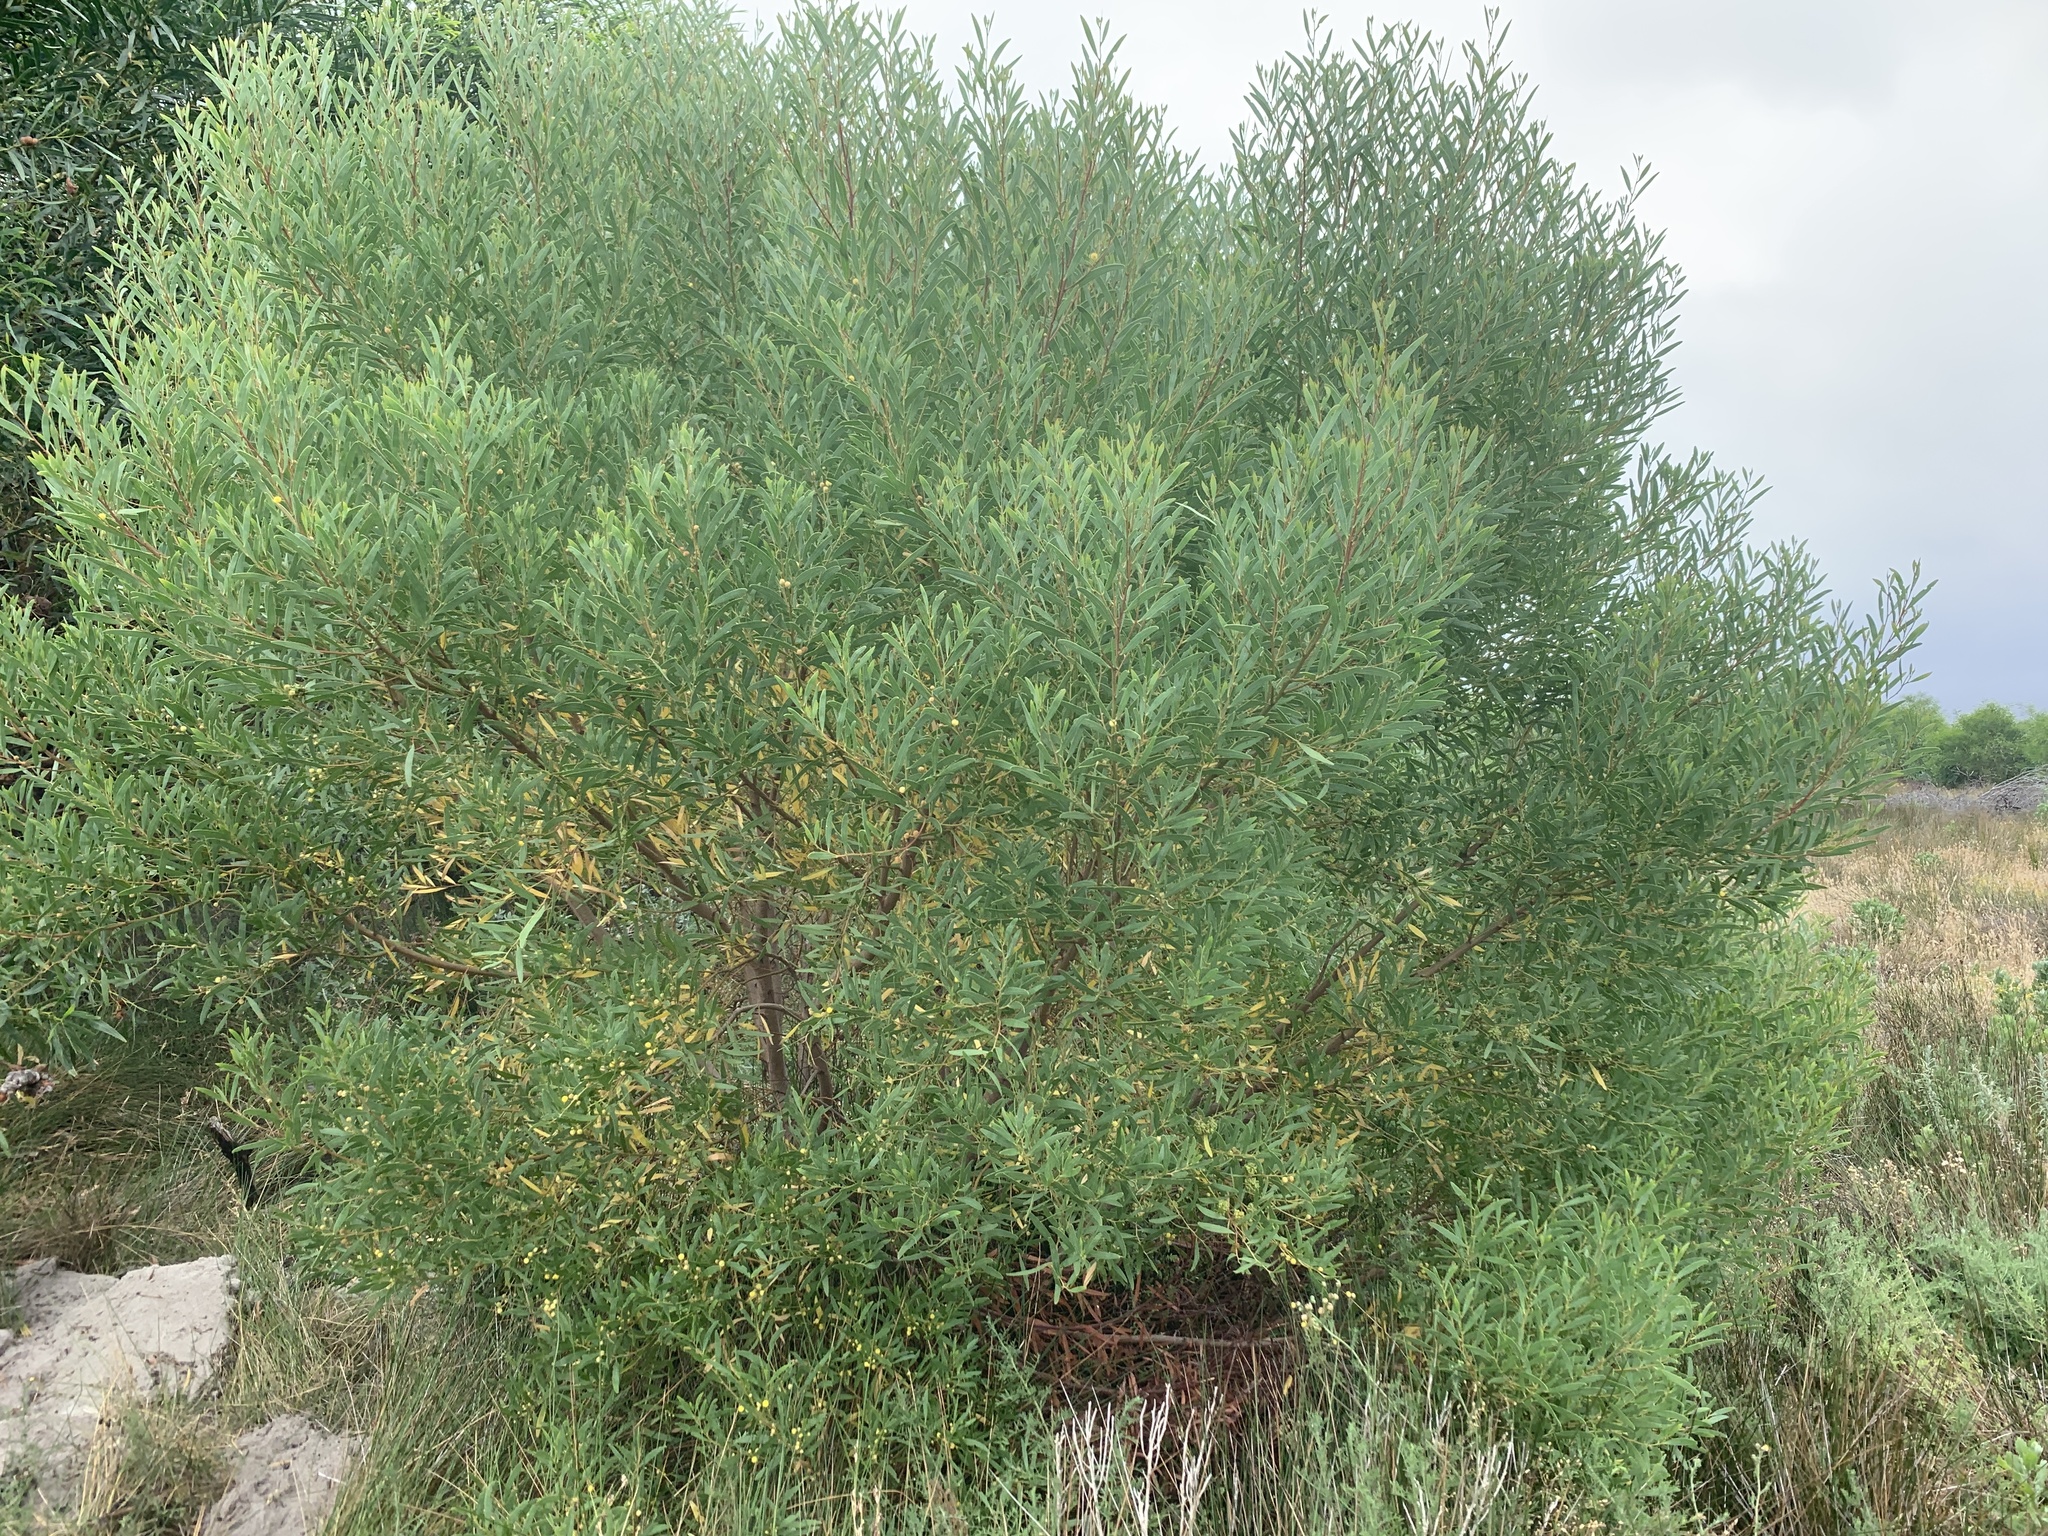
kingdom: Plantae
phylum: Tracheophyta
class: Magnoliopsida
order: Fabales
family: Fabaceae
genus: Acacia
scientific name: Acacia cyclops
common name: Coastal wattle
